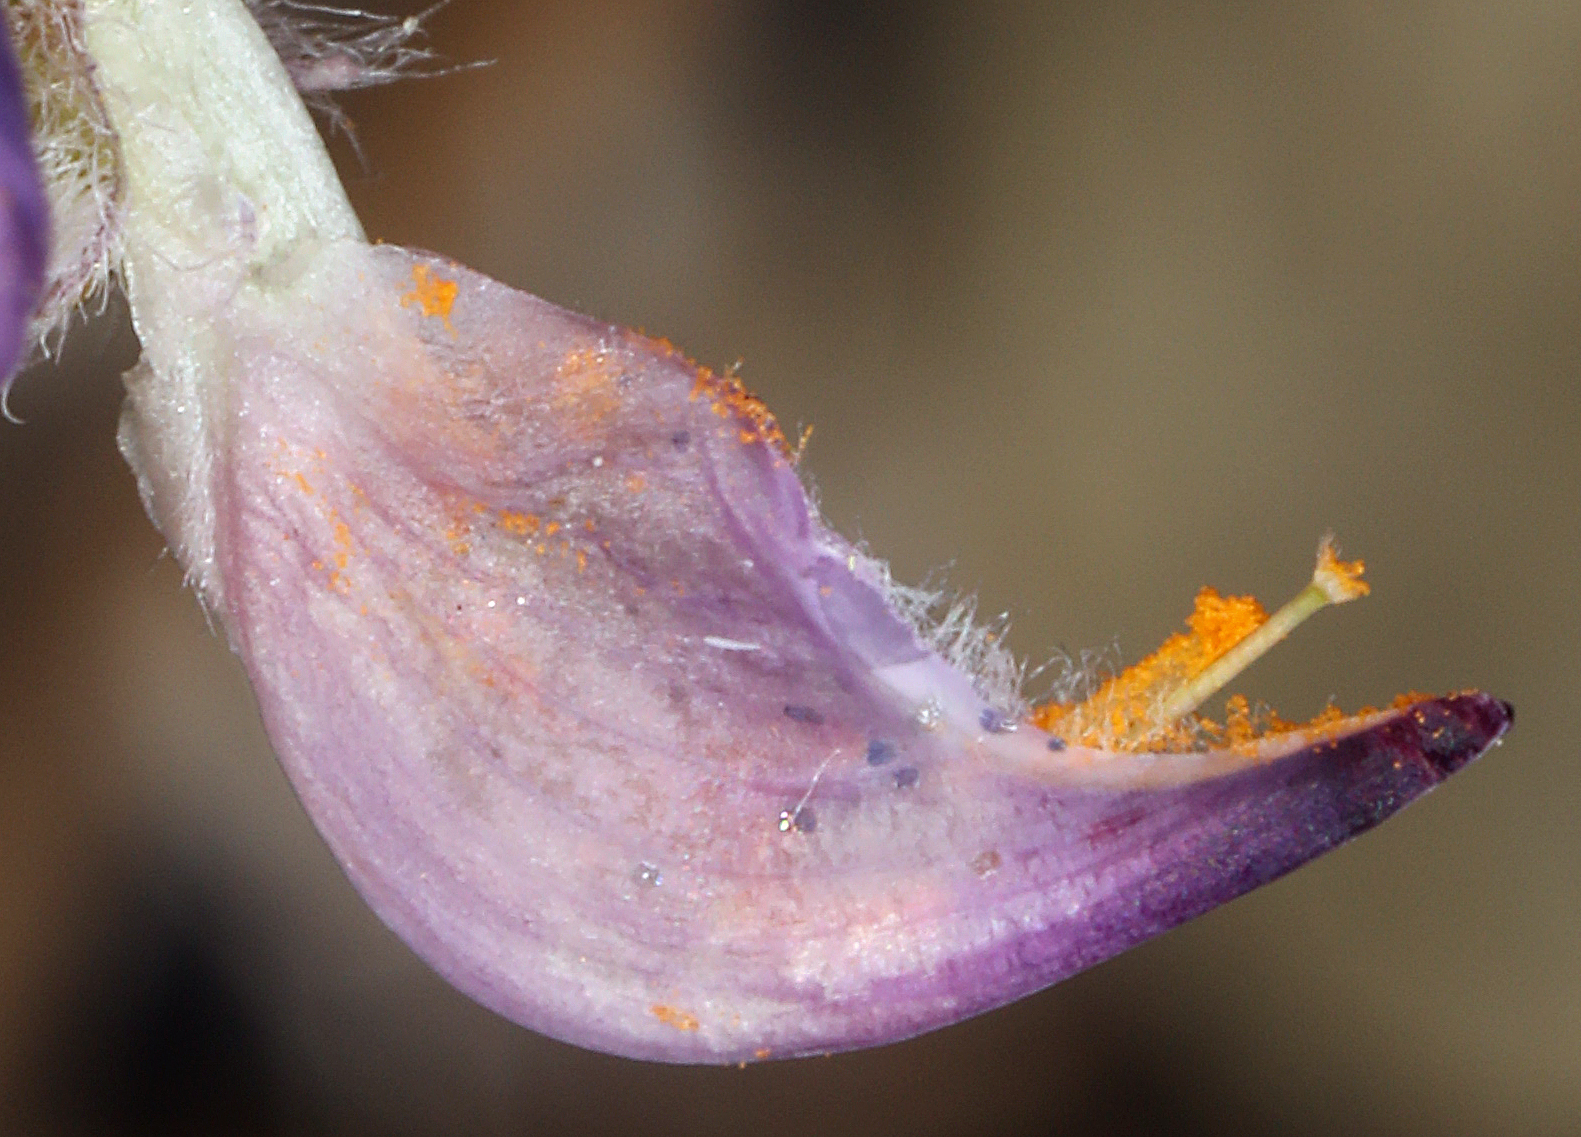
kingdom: Plantae
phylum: Tracheophyta
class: Magnoliopsida
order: Fabales
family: Fabaceae
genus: Lupinus
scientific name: Lupinus argenteus
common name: Silvery lupine
